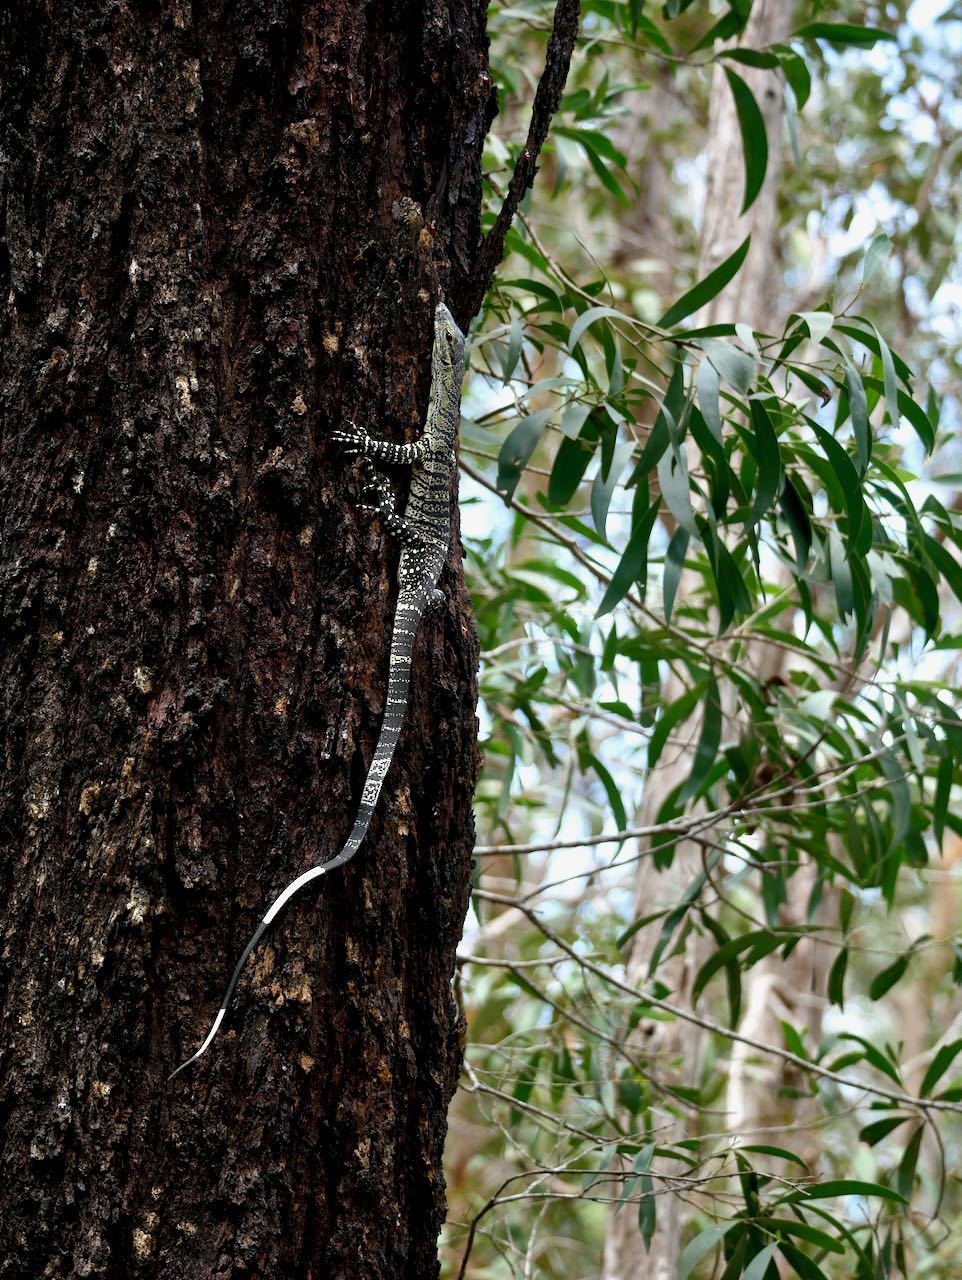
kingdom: Animalia
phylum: Chordata
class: Squamata
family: Varanidae
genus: Varanus
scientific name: Varanus varius
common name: Lace monitor
